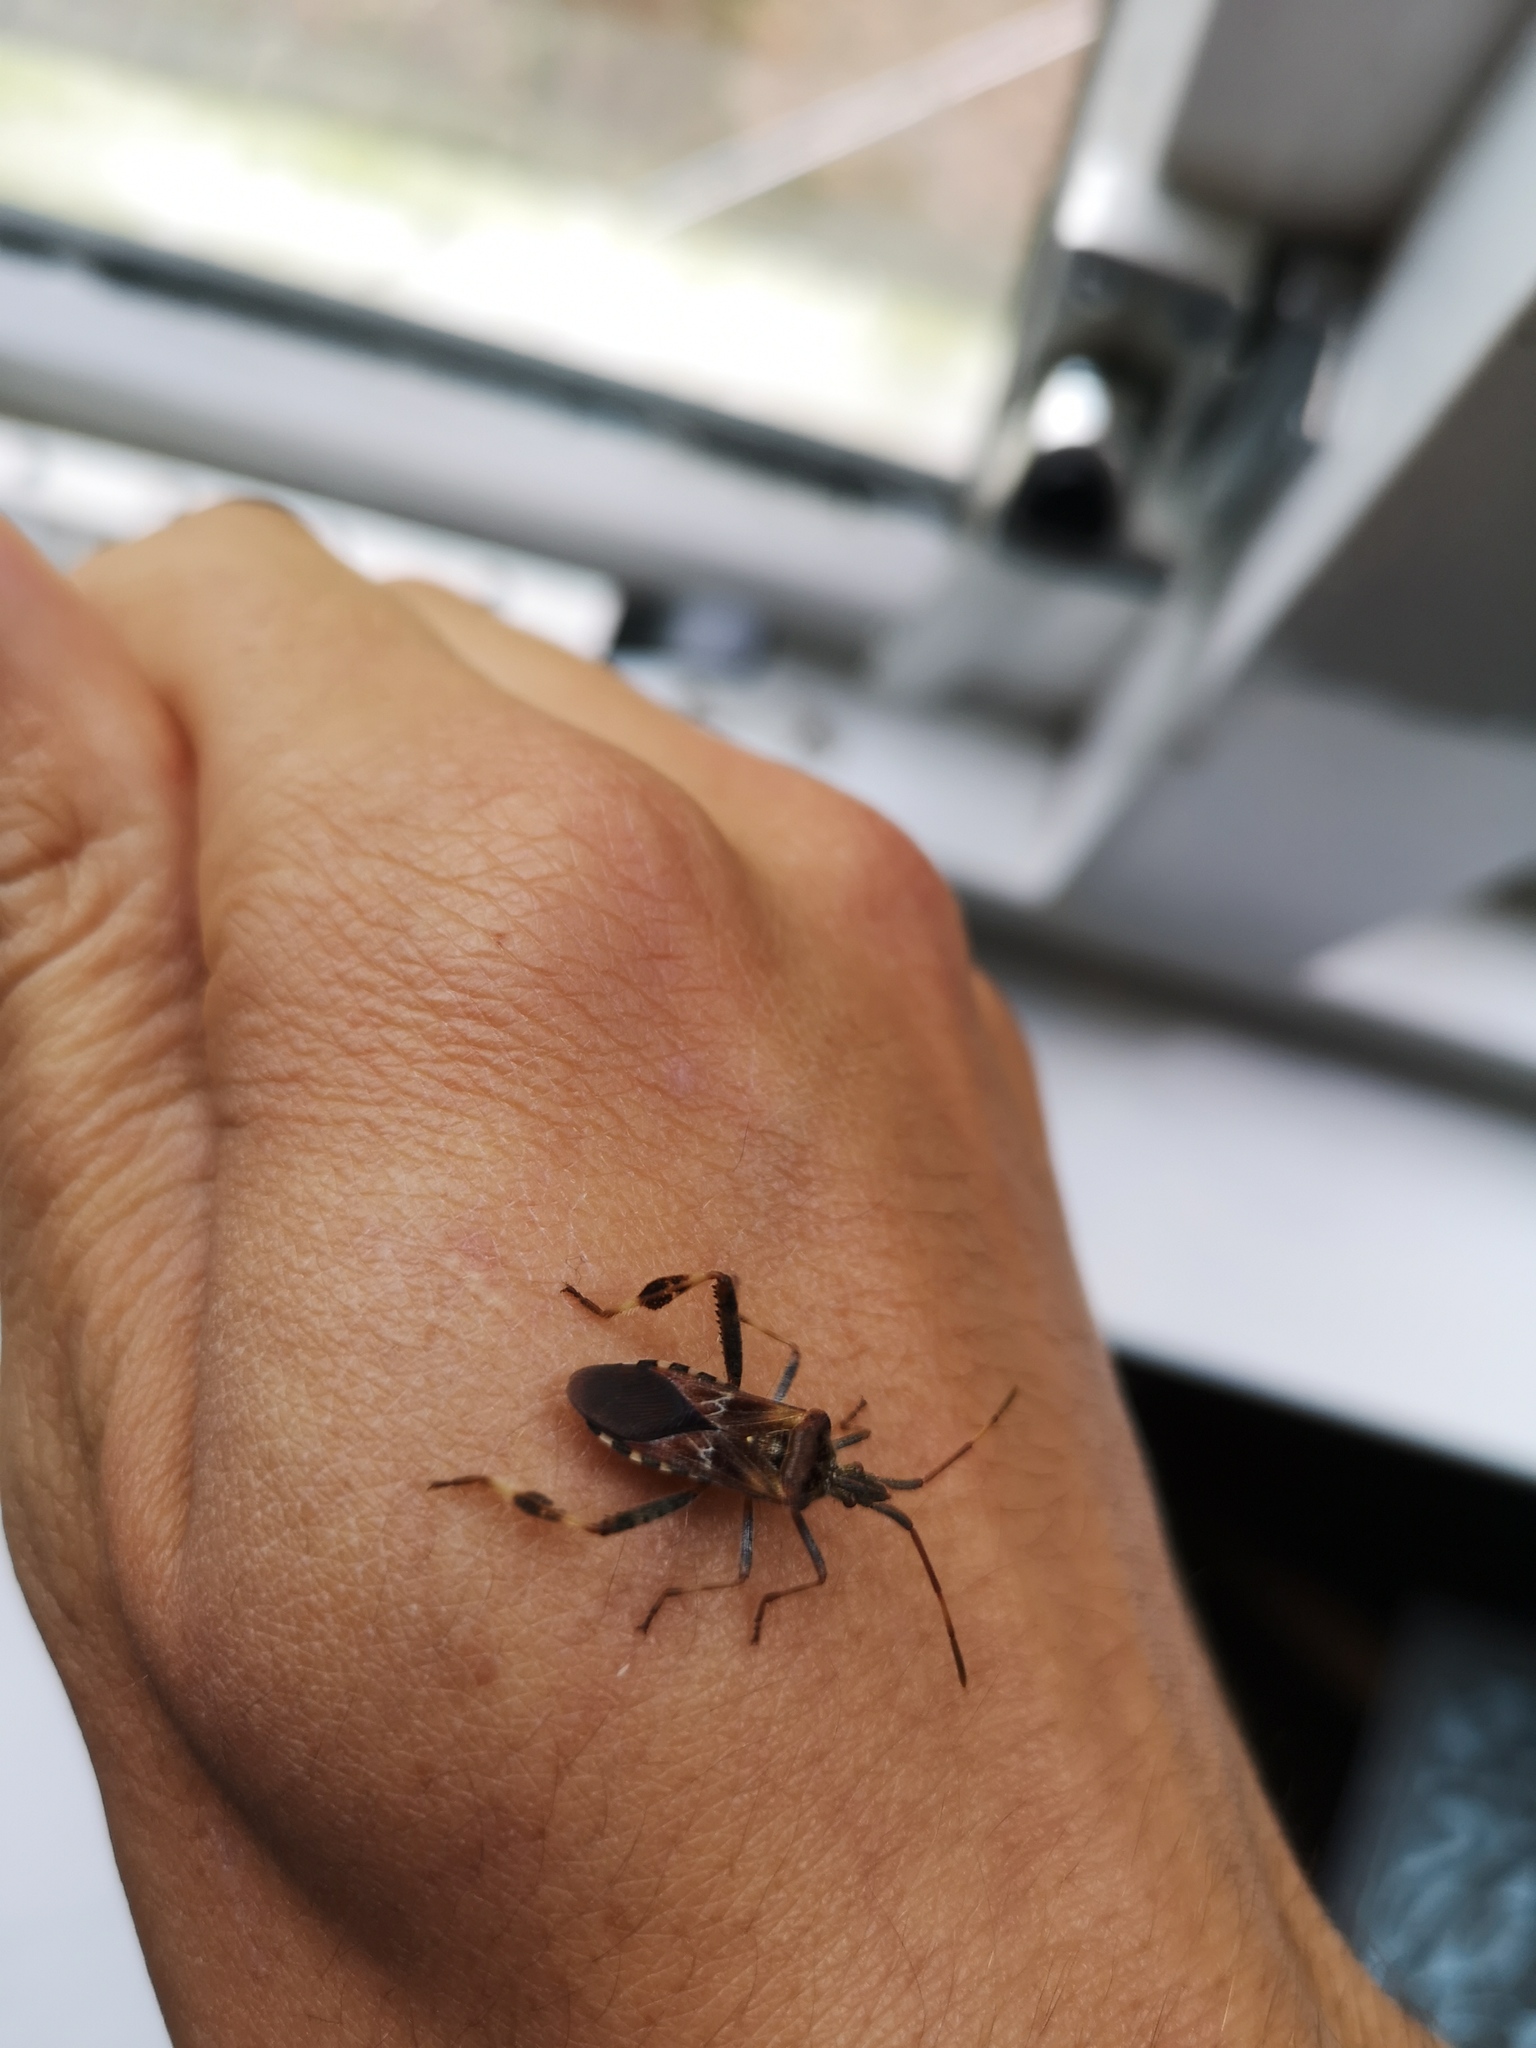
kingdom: Animalia
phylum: Arthropoda
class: Insecta
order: Hemiptera
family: Coreidae
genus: Leptoglossus
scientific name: Leptoglossus occidentalis
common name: Western conifer-seed bug
